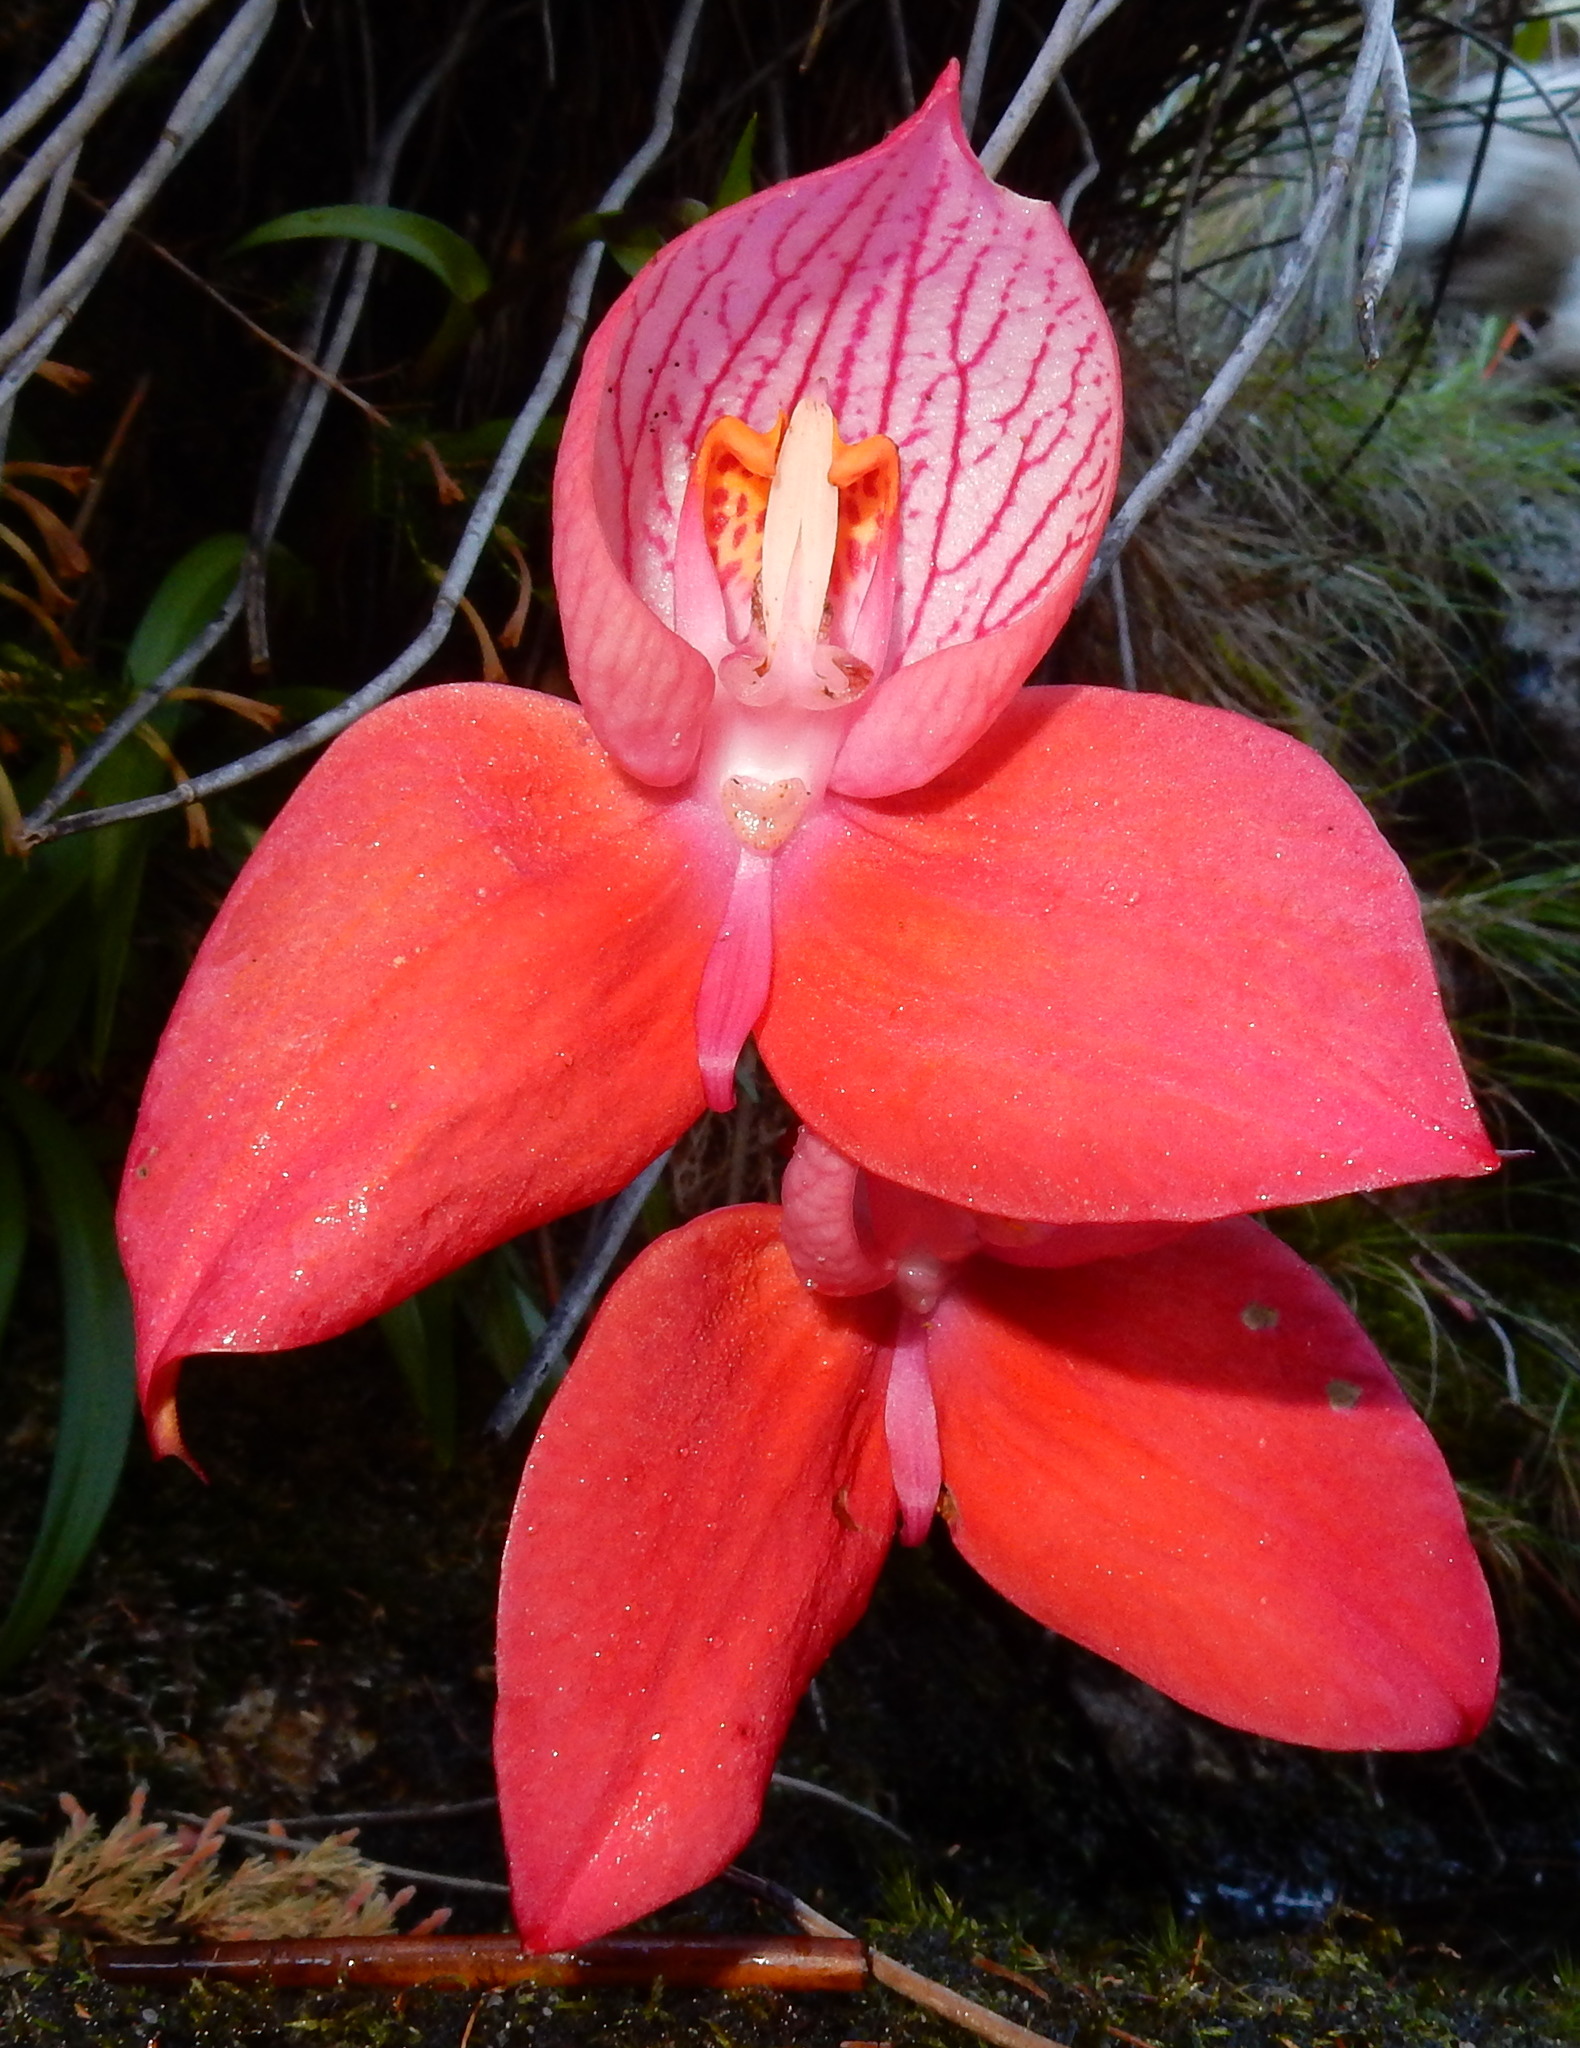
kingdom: Plantae
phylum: Tracheophyta
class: Liliopsida
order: Asparagales
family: Orchidaceae
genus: Disa
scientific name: Disa uniflora
